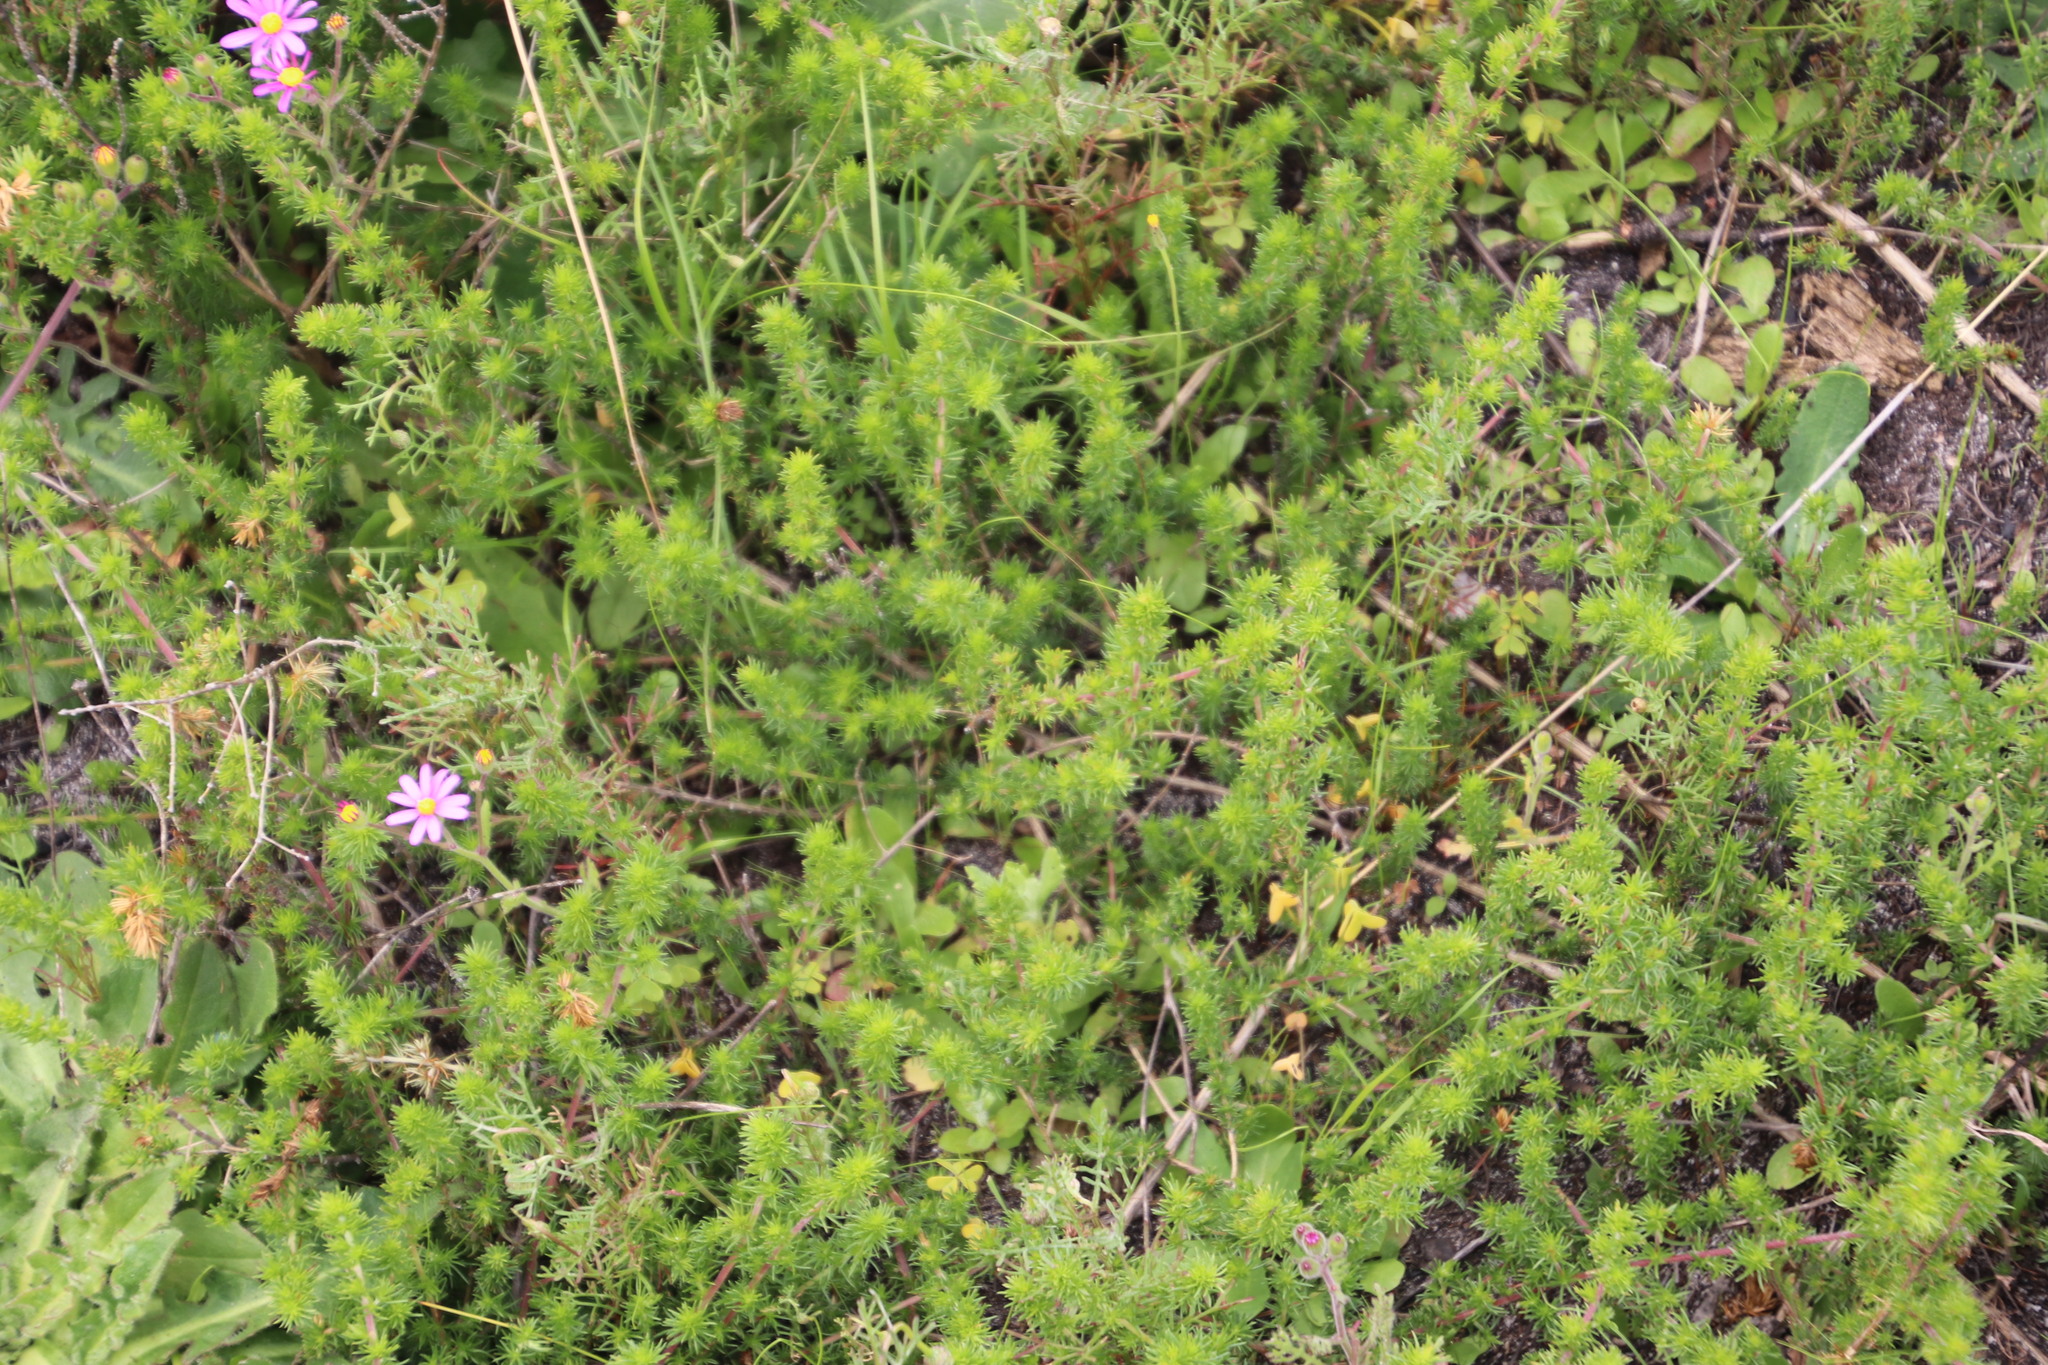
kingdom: Plantae
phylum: Tracheophyta
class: Magnoliopsida
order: Fabales
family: Fabaceae
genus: Aspalathus
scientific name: Aspalathus retroflexa
